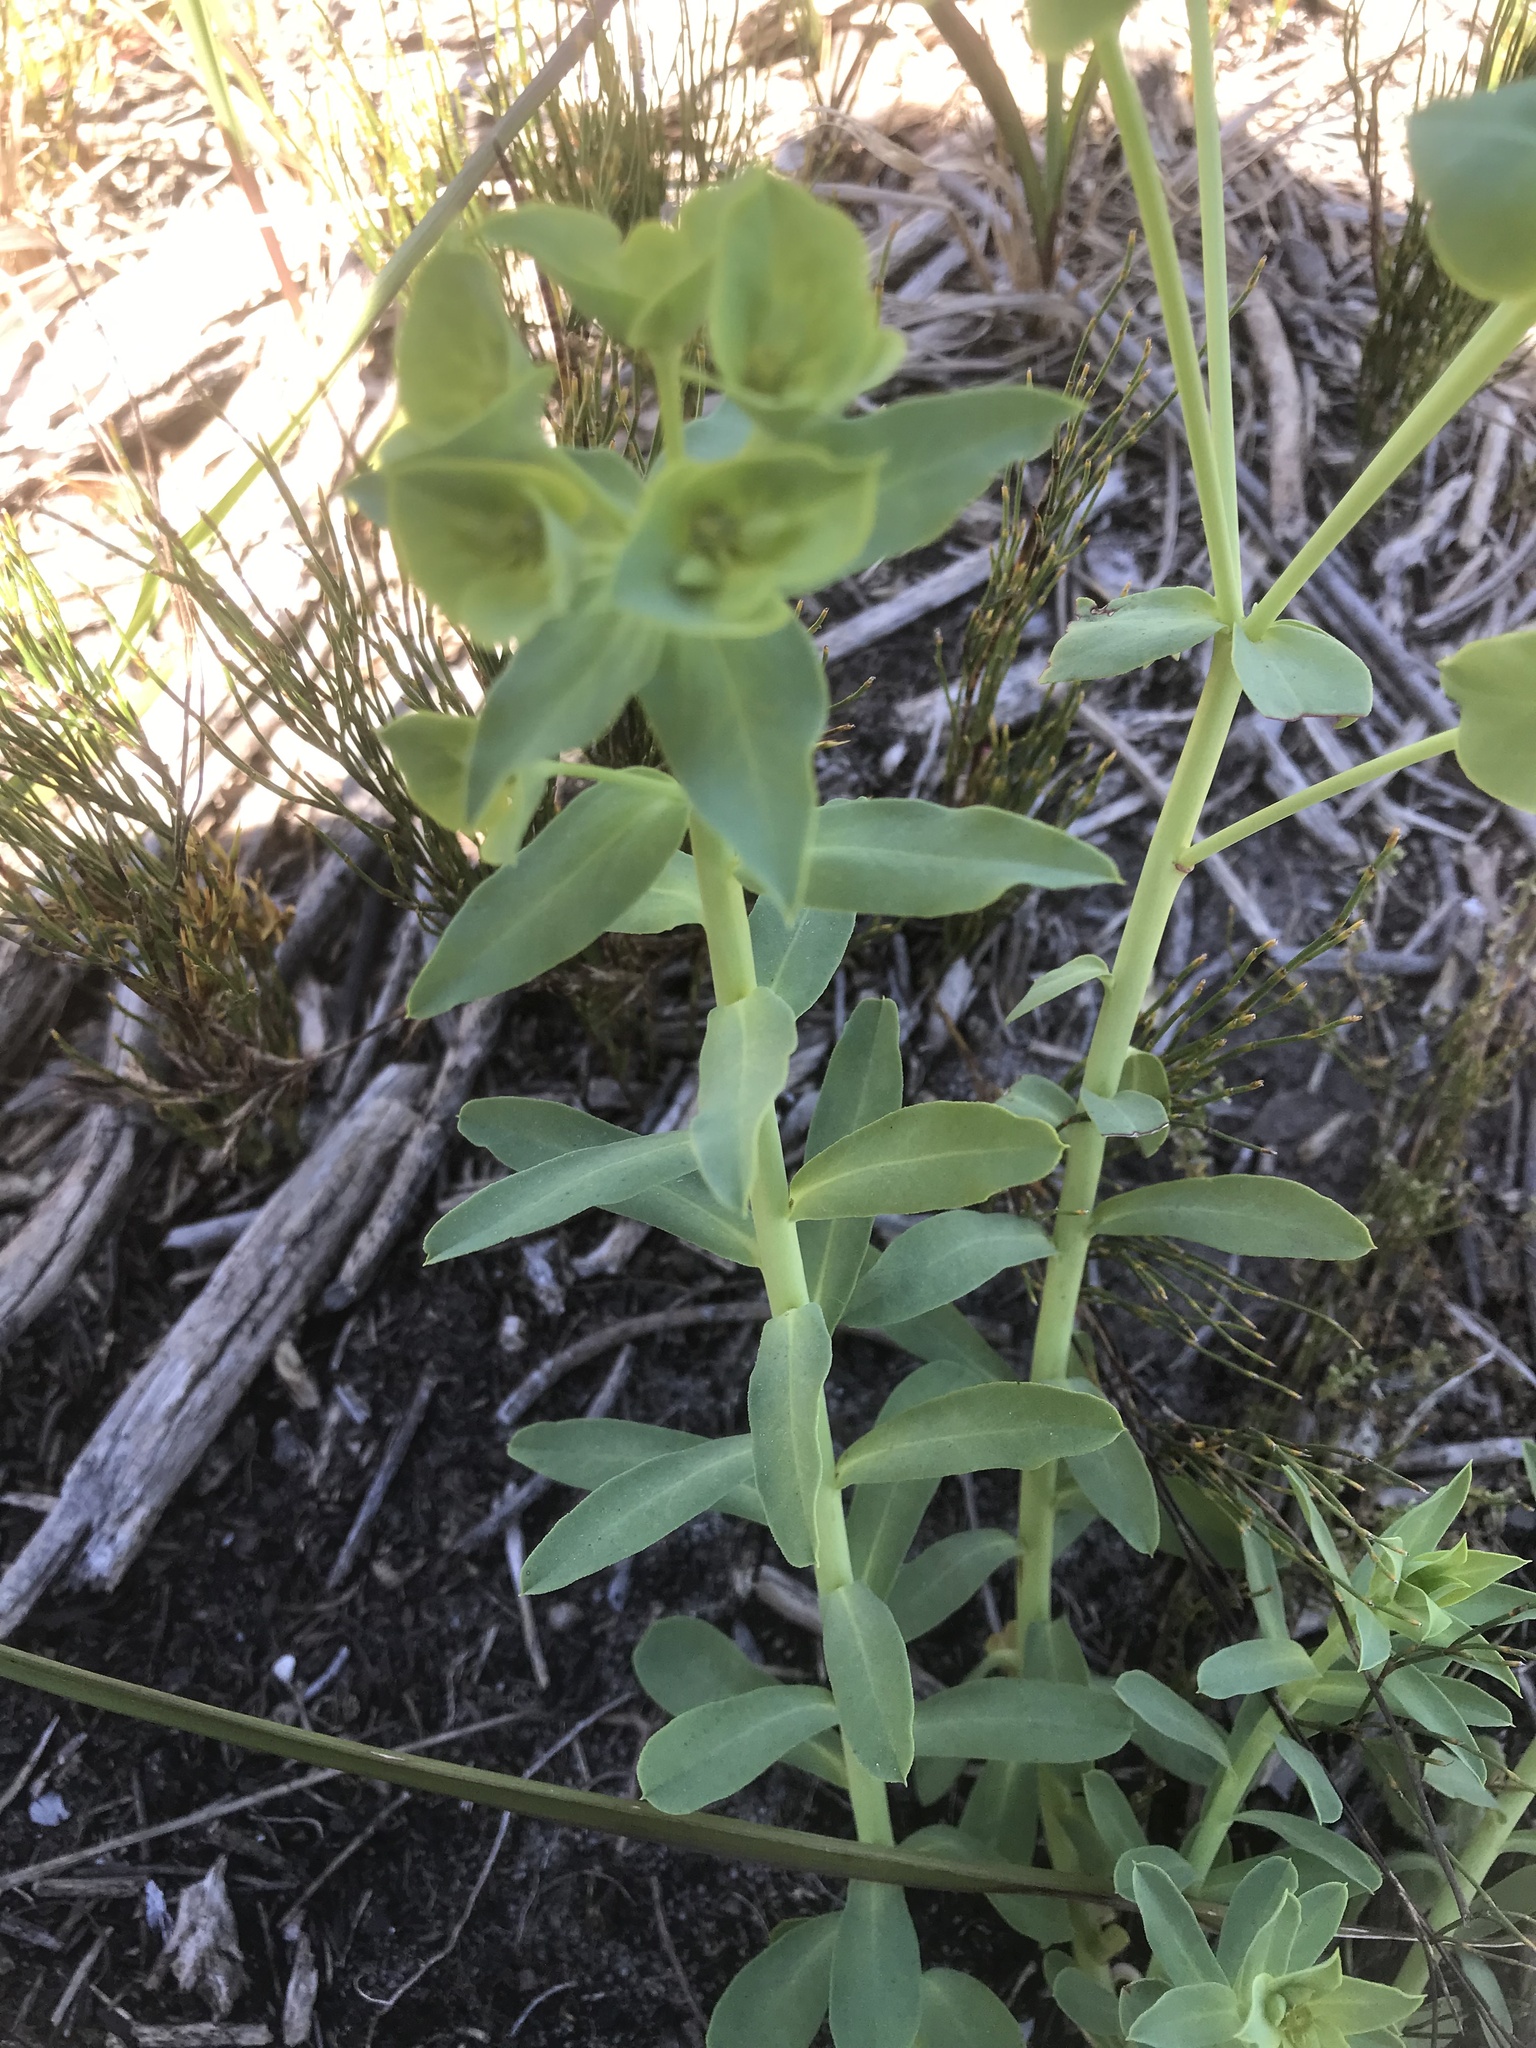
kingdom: Plantae
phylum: Tracheophyta
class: Magnoliopsida
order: Malpighiales
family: Euphorbiaceae
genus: Euphorbia
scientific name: Euphorbia terracina
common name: Geraldton carnation weed
